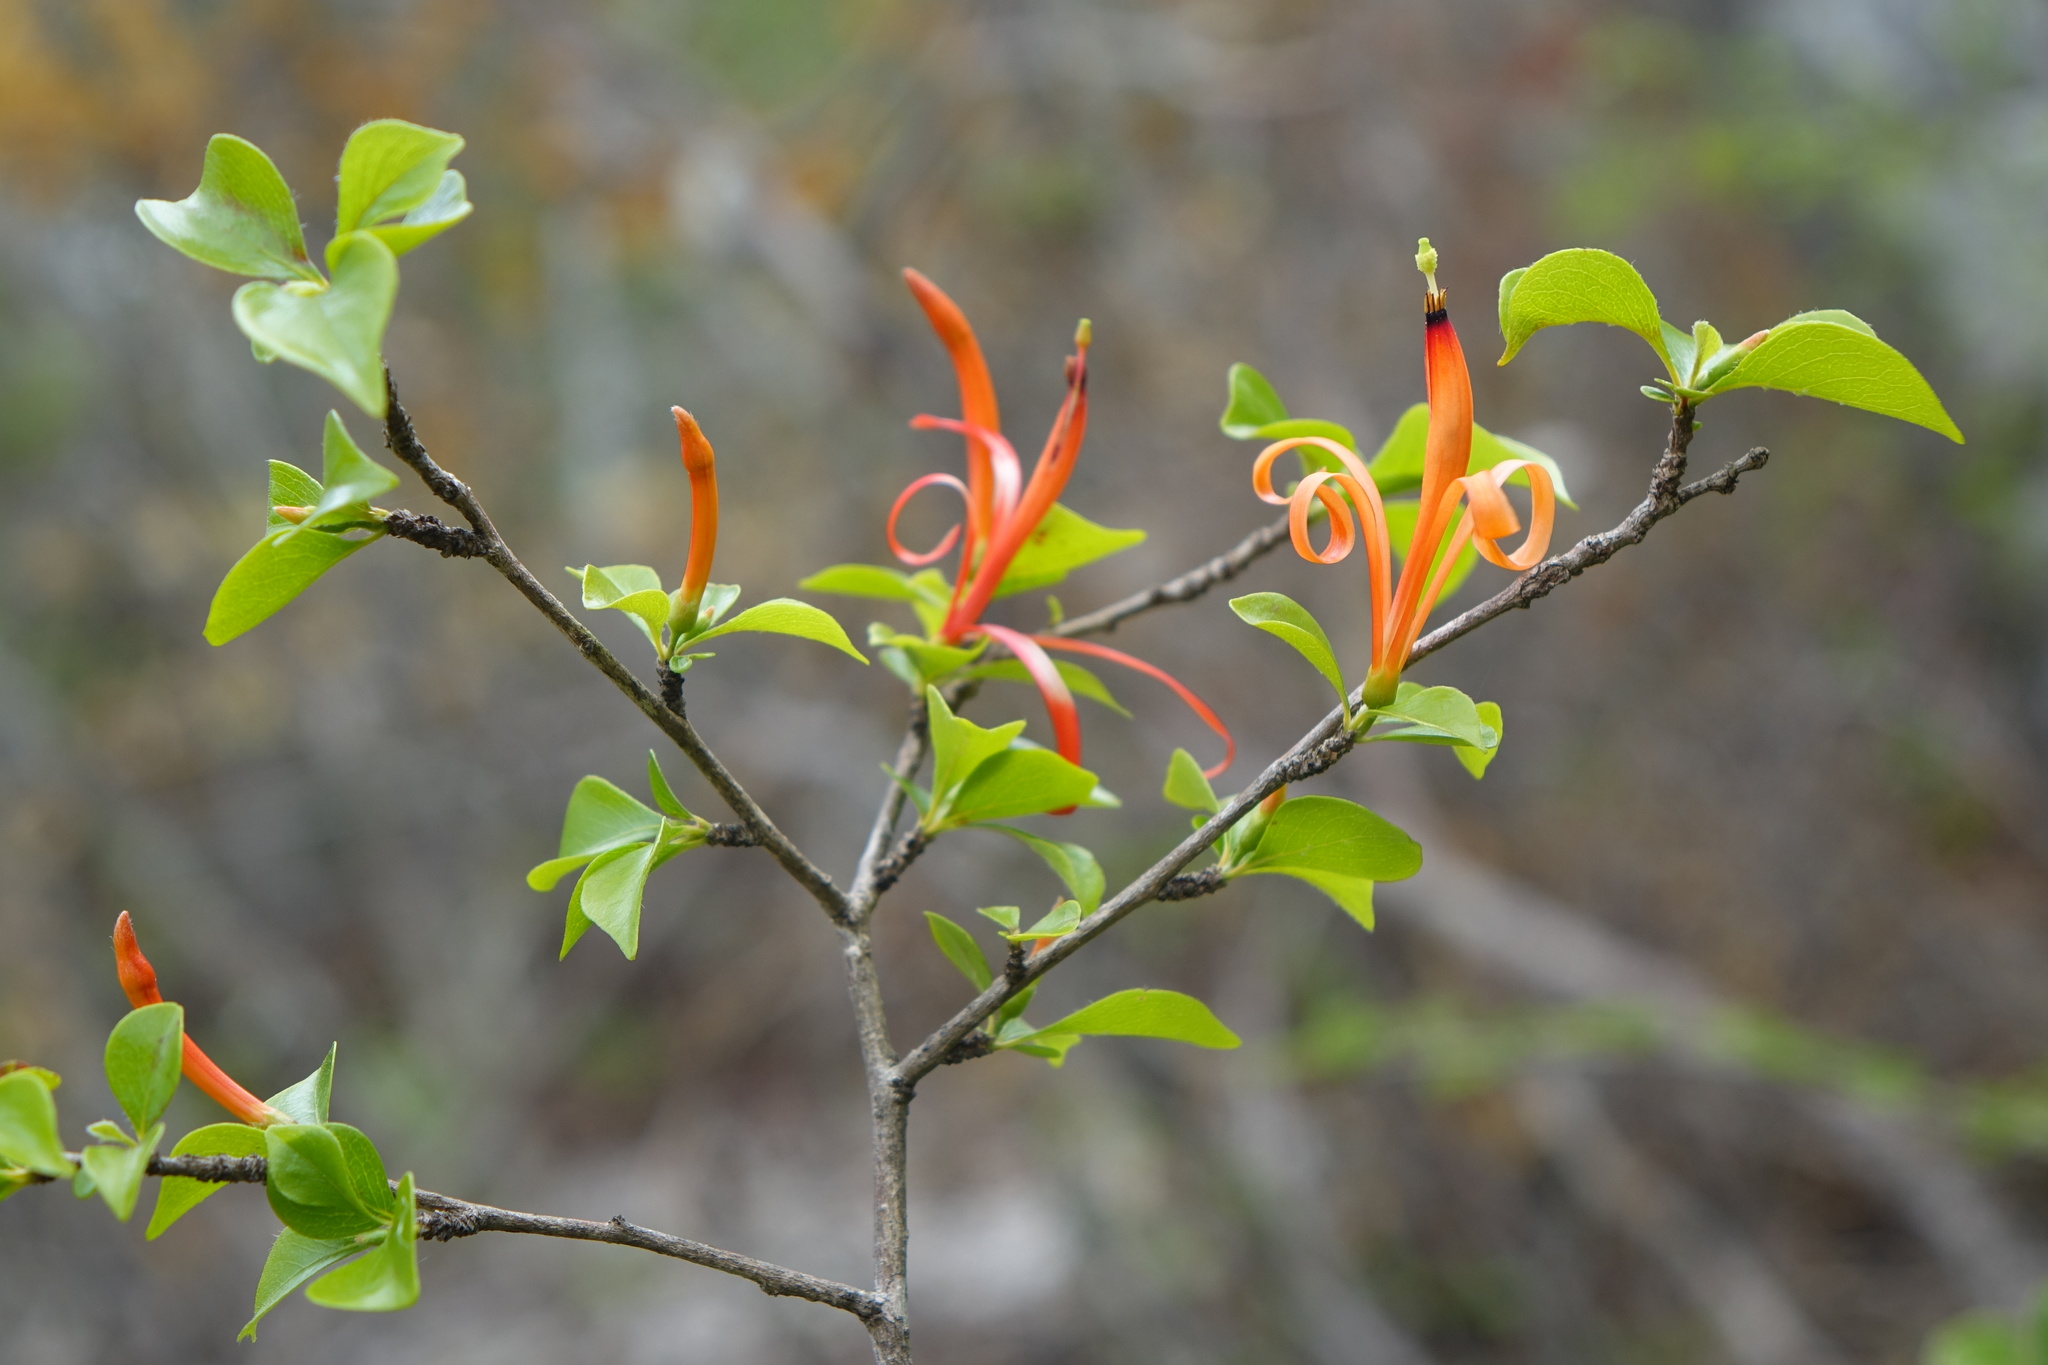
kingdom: Plantae
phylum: Tracheophyta
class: Magnoliopsida
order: Sapindales
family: Meliaceae
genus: Turraea
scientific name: Turraea pervillei
